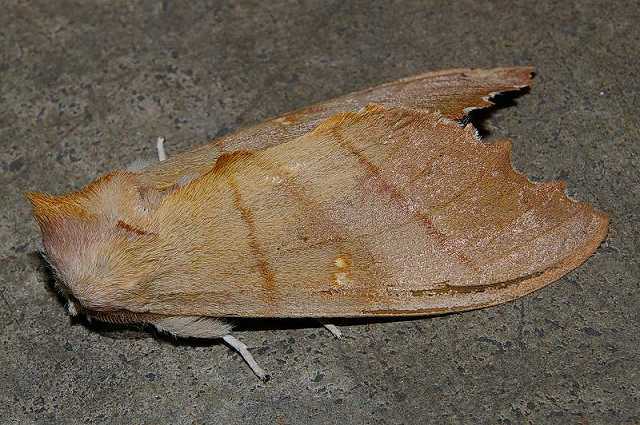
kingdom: Animalia
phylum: Arthropoda
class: Insecta
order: Lepidoptera
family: Notodontidae
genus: Euhampsonia
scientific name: Euhampsonia cristata
